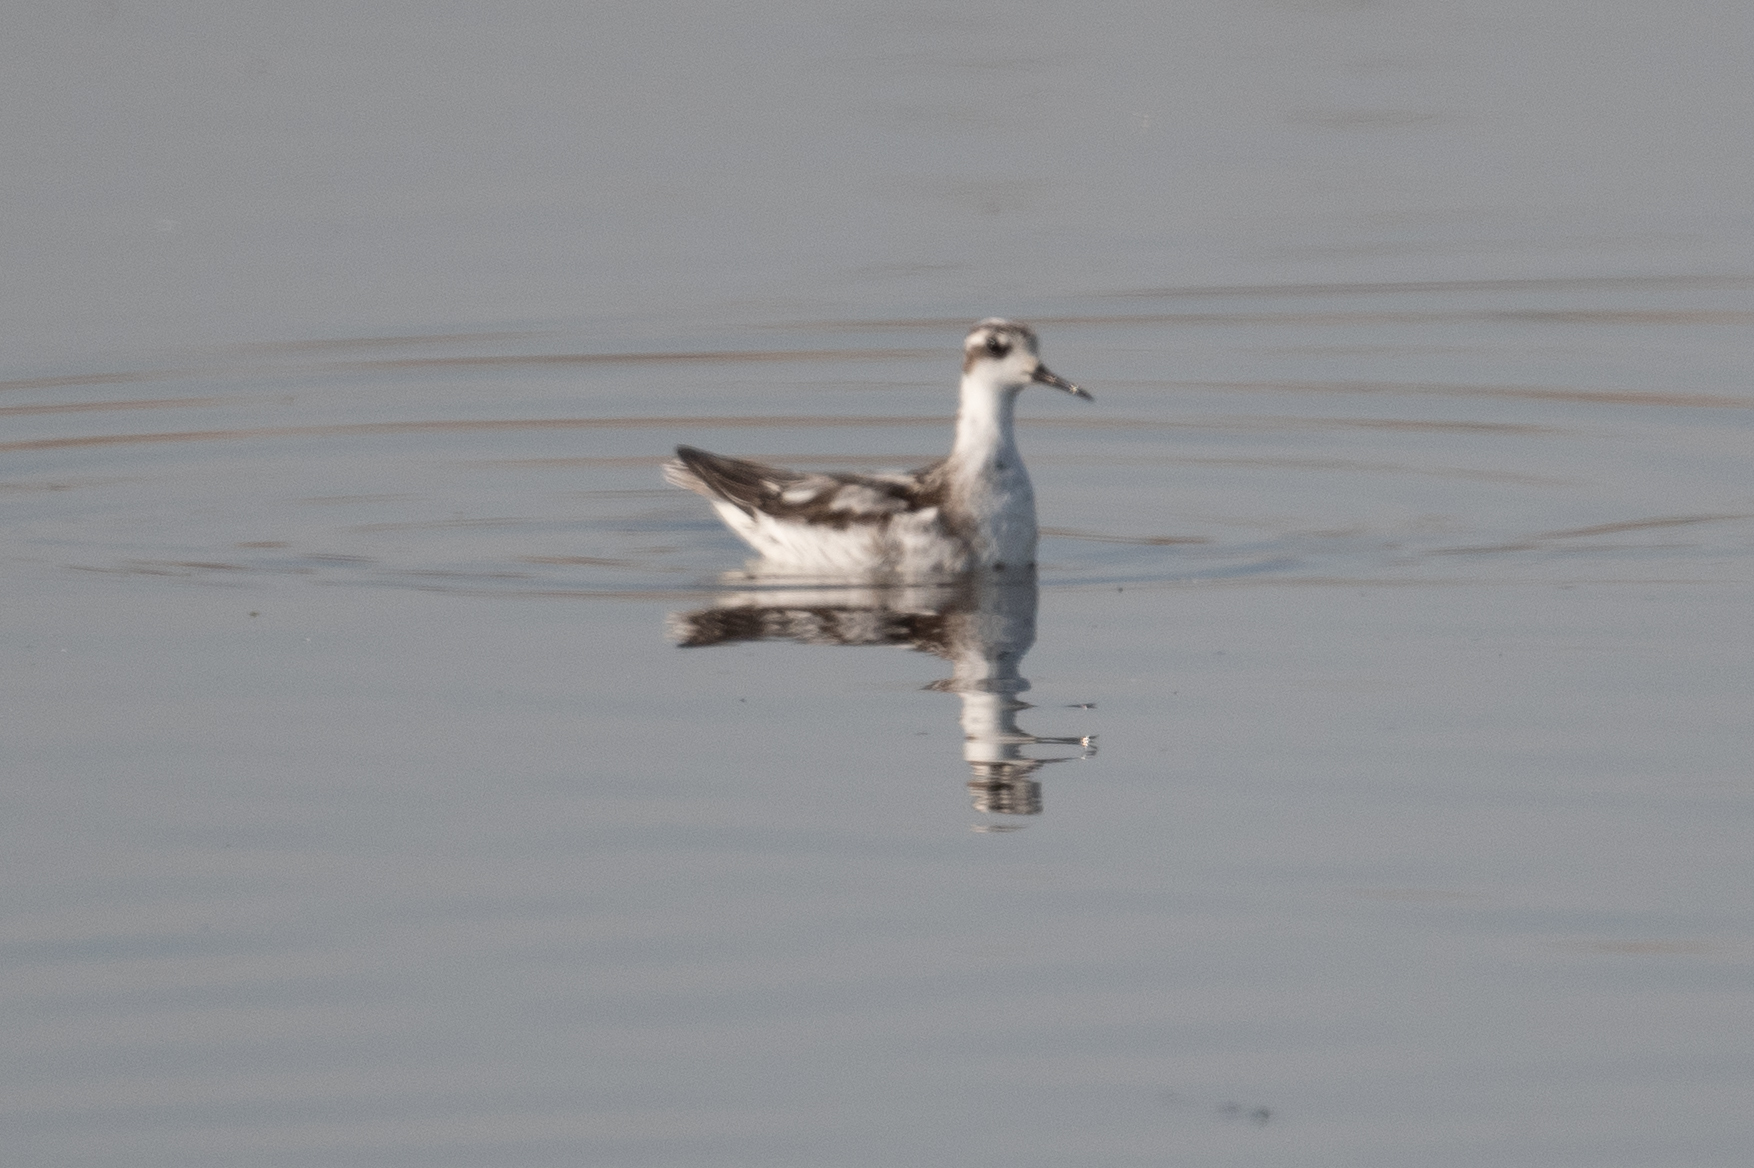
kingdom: Animalia
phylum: Chordata
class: Aves
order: Charadriiformes
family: Scolopacidae
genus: Phalaropus
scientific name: Phalaropus lobatus
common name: Red-necked phalarope
